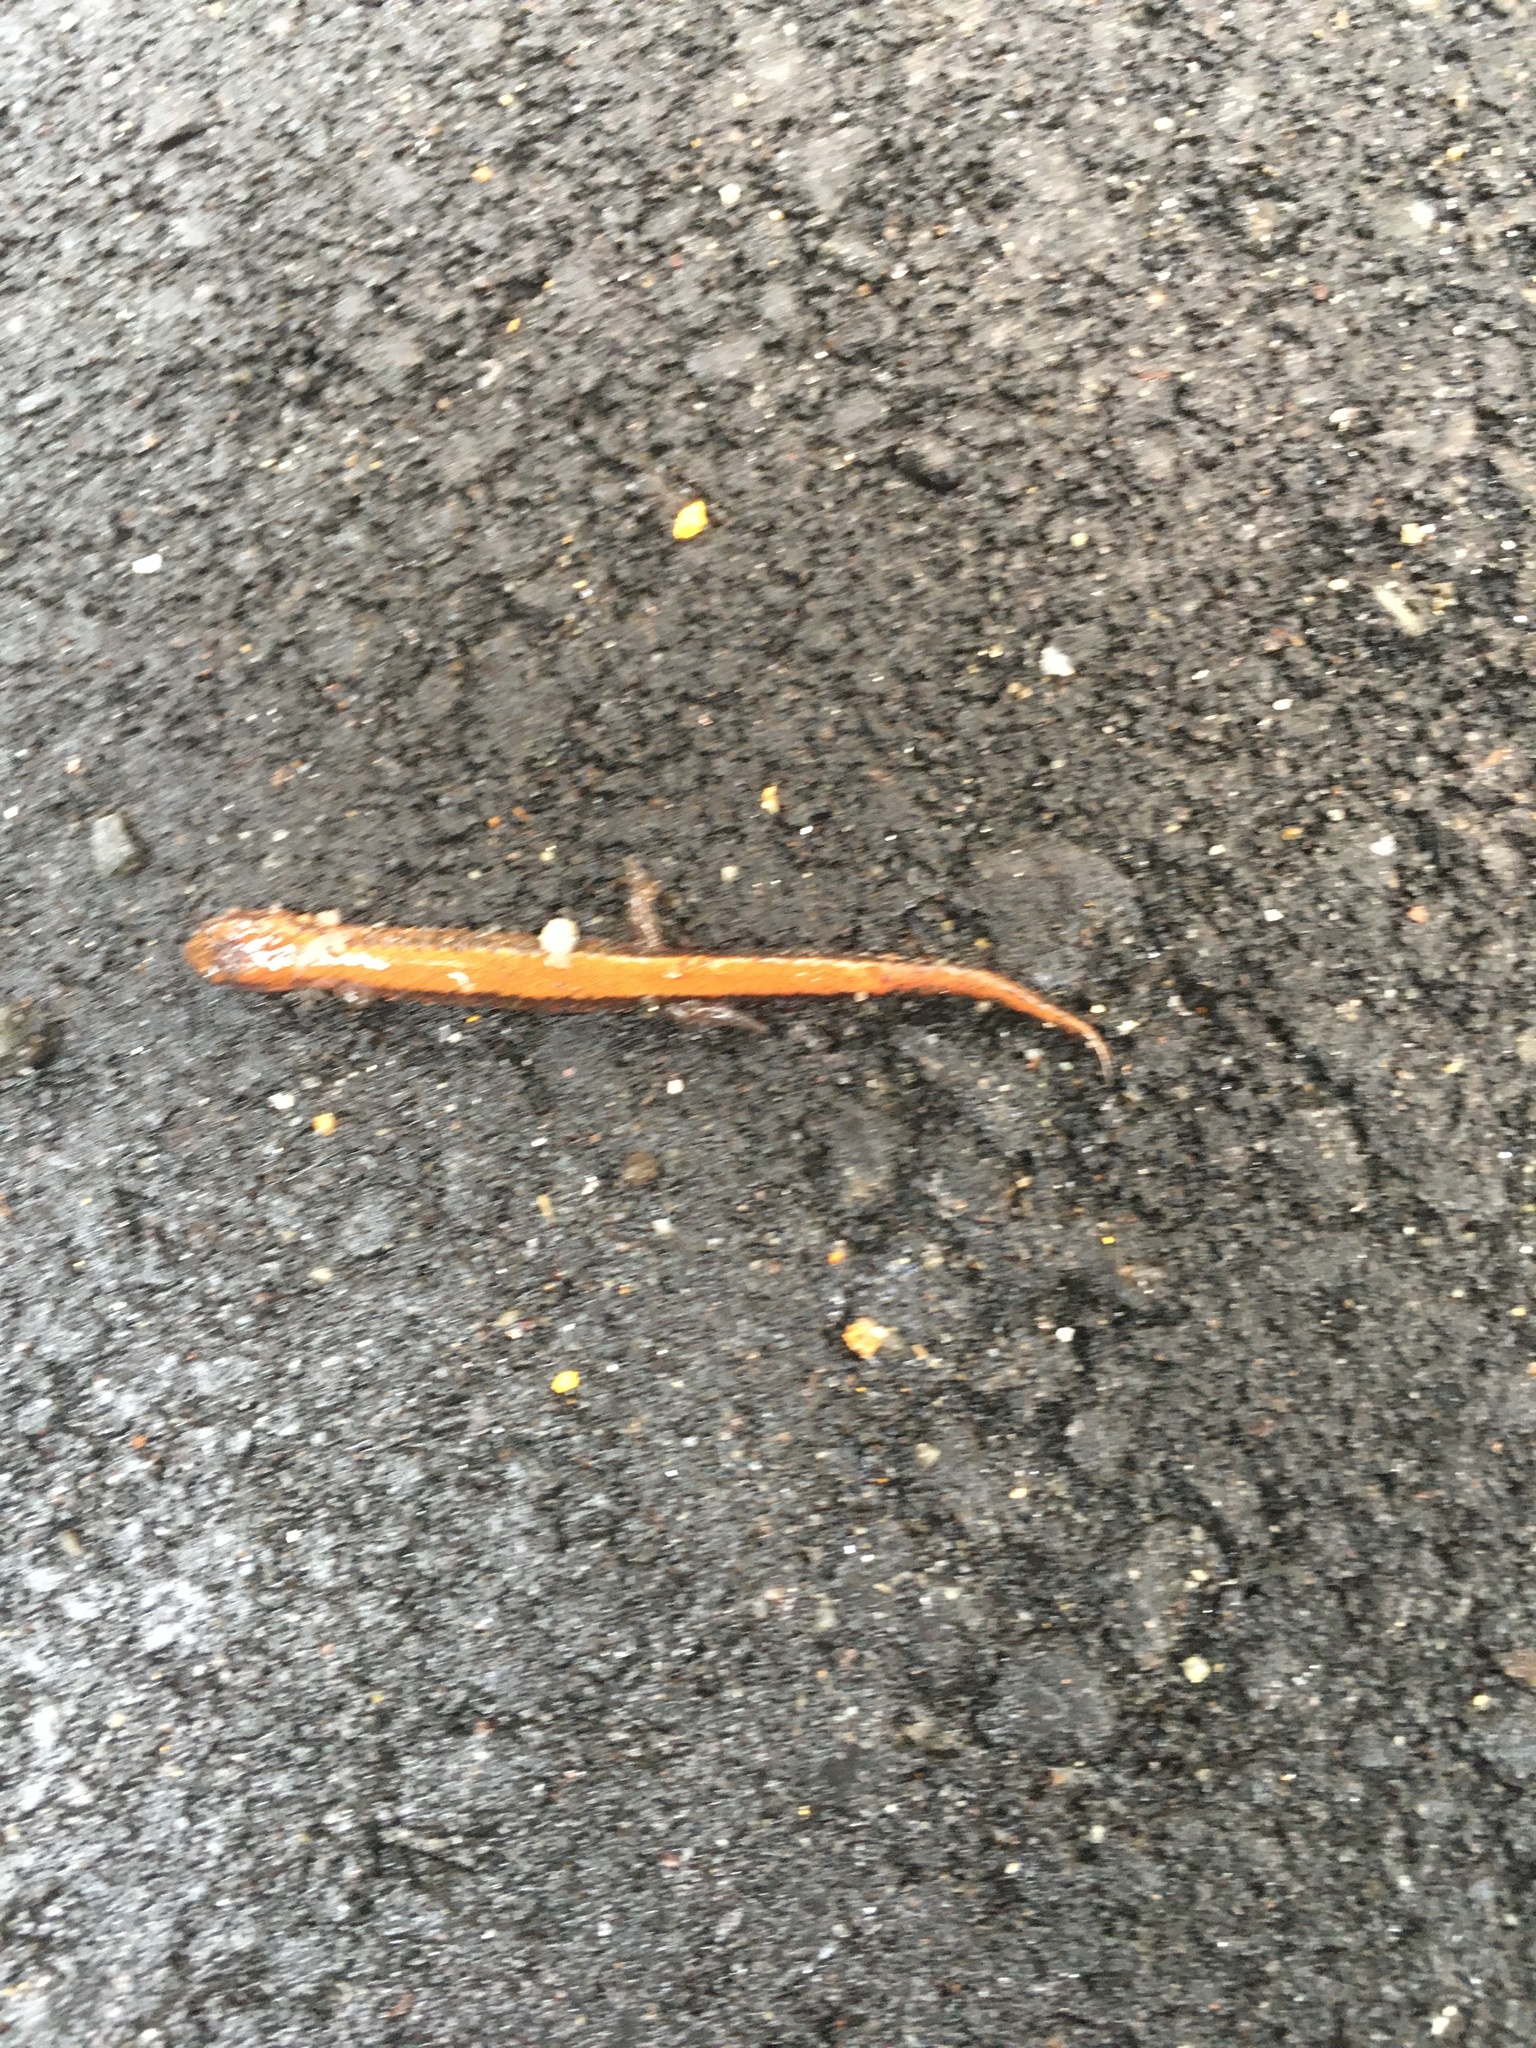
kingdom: Animalia
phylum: Chordata
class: Amphibia
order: Caudata
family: Plethodontidae
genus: Plethodon
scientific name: Plethodon cinereus
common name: Redback salamander
